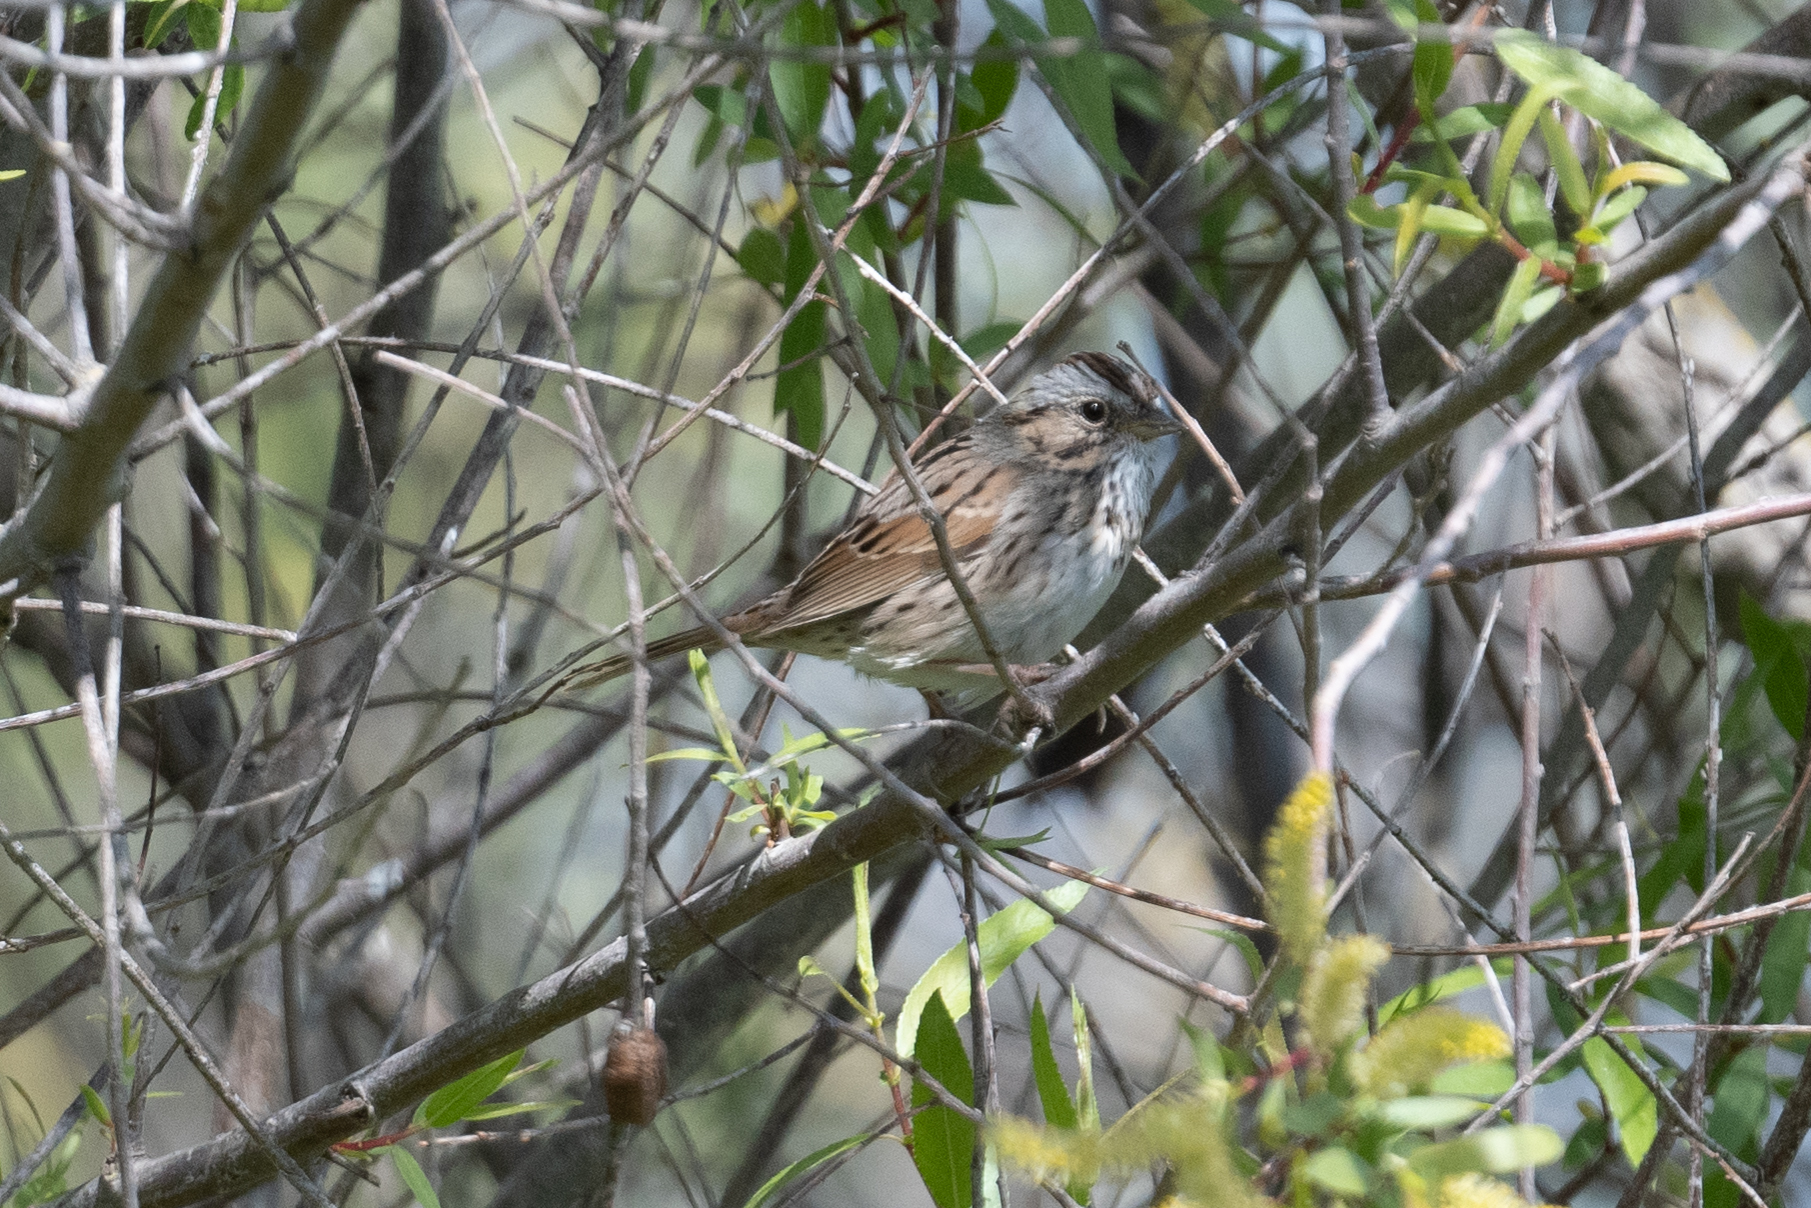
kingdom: Animalia
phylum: Chordata
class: Aves
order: Passeriformes
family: Passerellidae
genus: Melospiza
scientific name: Melospiza lincolnii
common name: Lincoln's sparrow
